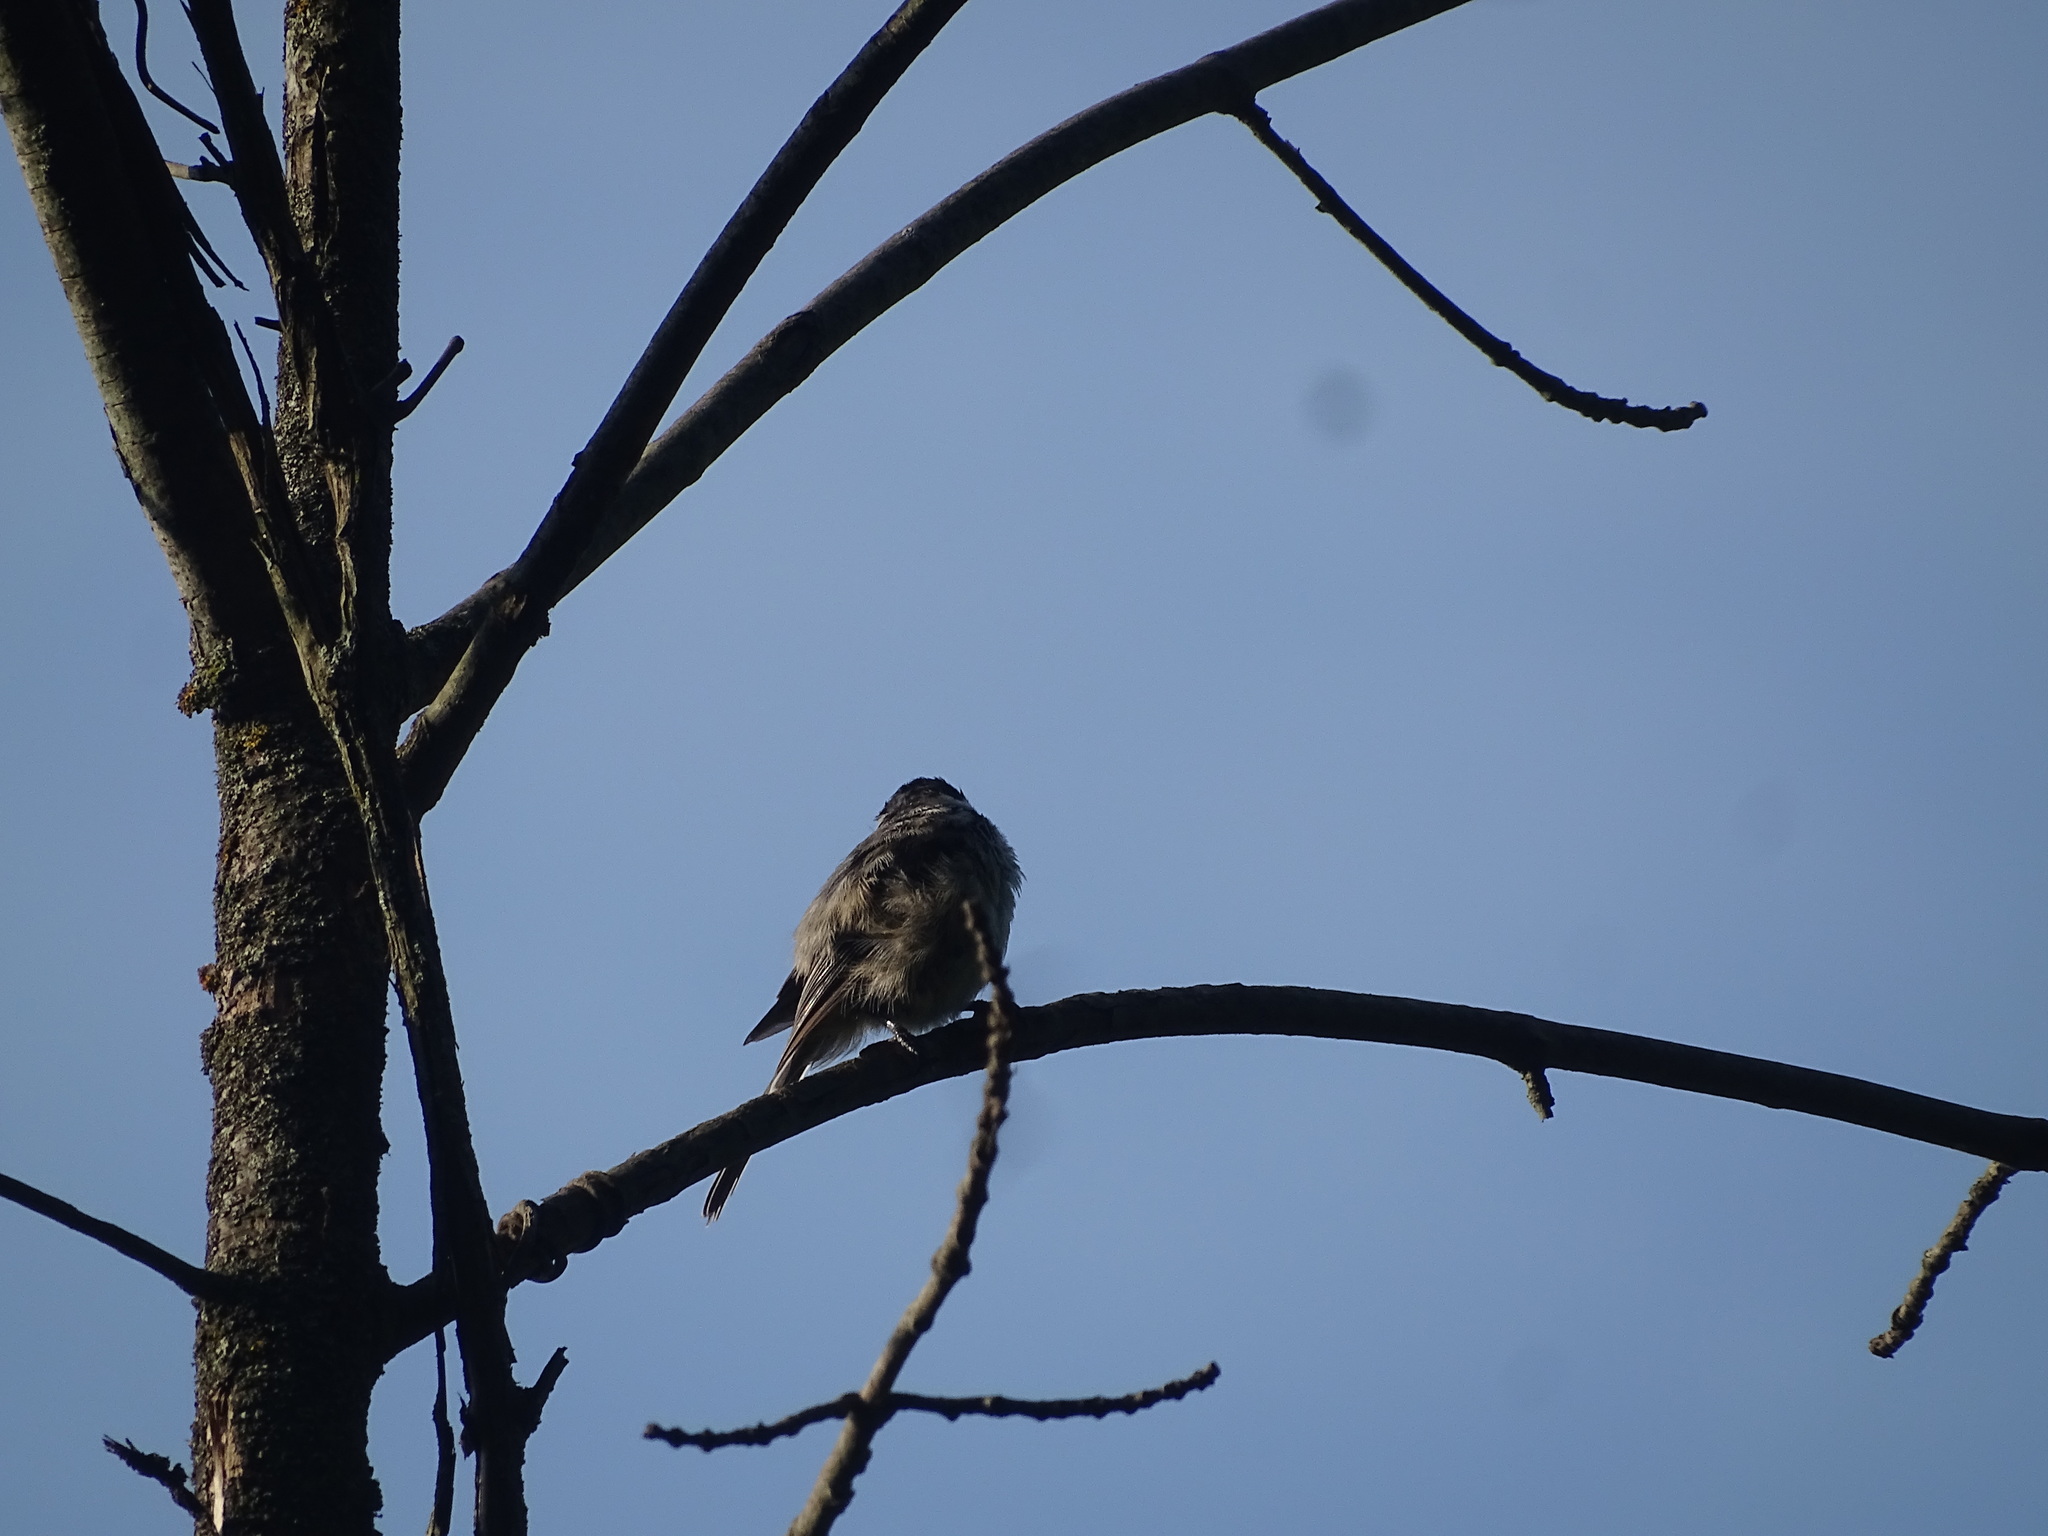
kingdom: Animalia
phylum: Chordata
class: Aves
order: Passeriformes
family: Paridae
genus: Poecile
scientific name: Poecile atricapillus
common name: Black-capped chickadee
